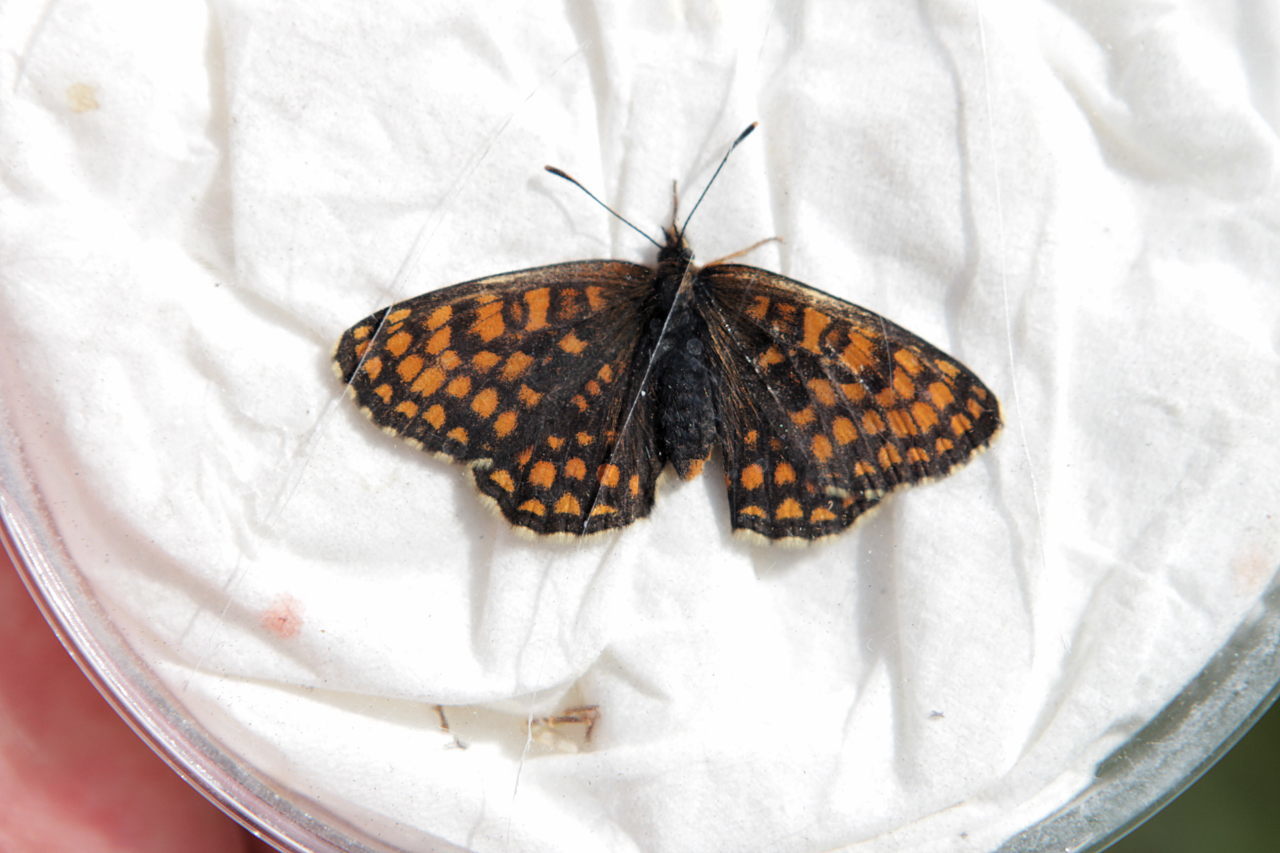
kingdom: Animalia
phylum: Arthropoda
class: Insecta
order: Lepidoptera
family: Nymphalidae
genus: Melitaea
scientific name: Melitaea athalia
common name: Heath fritillary
